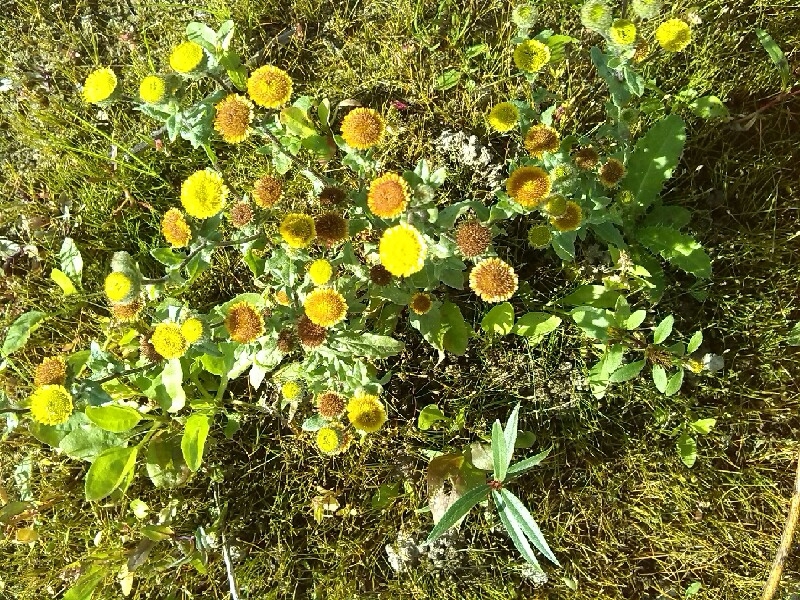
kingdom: Plantae
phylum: Tracheophyta
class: Magnoliopsida
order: Asterales
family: Asteraceae
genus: Pulicaria
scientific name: Pulicaria vulgaris
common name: Small fleabane
